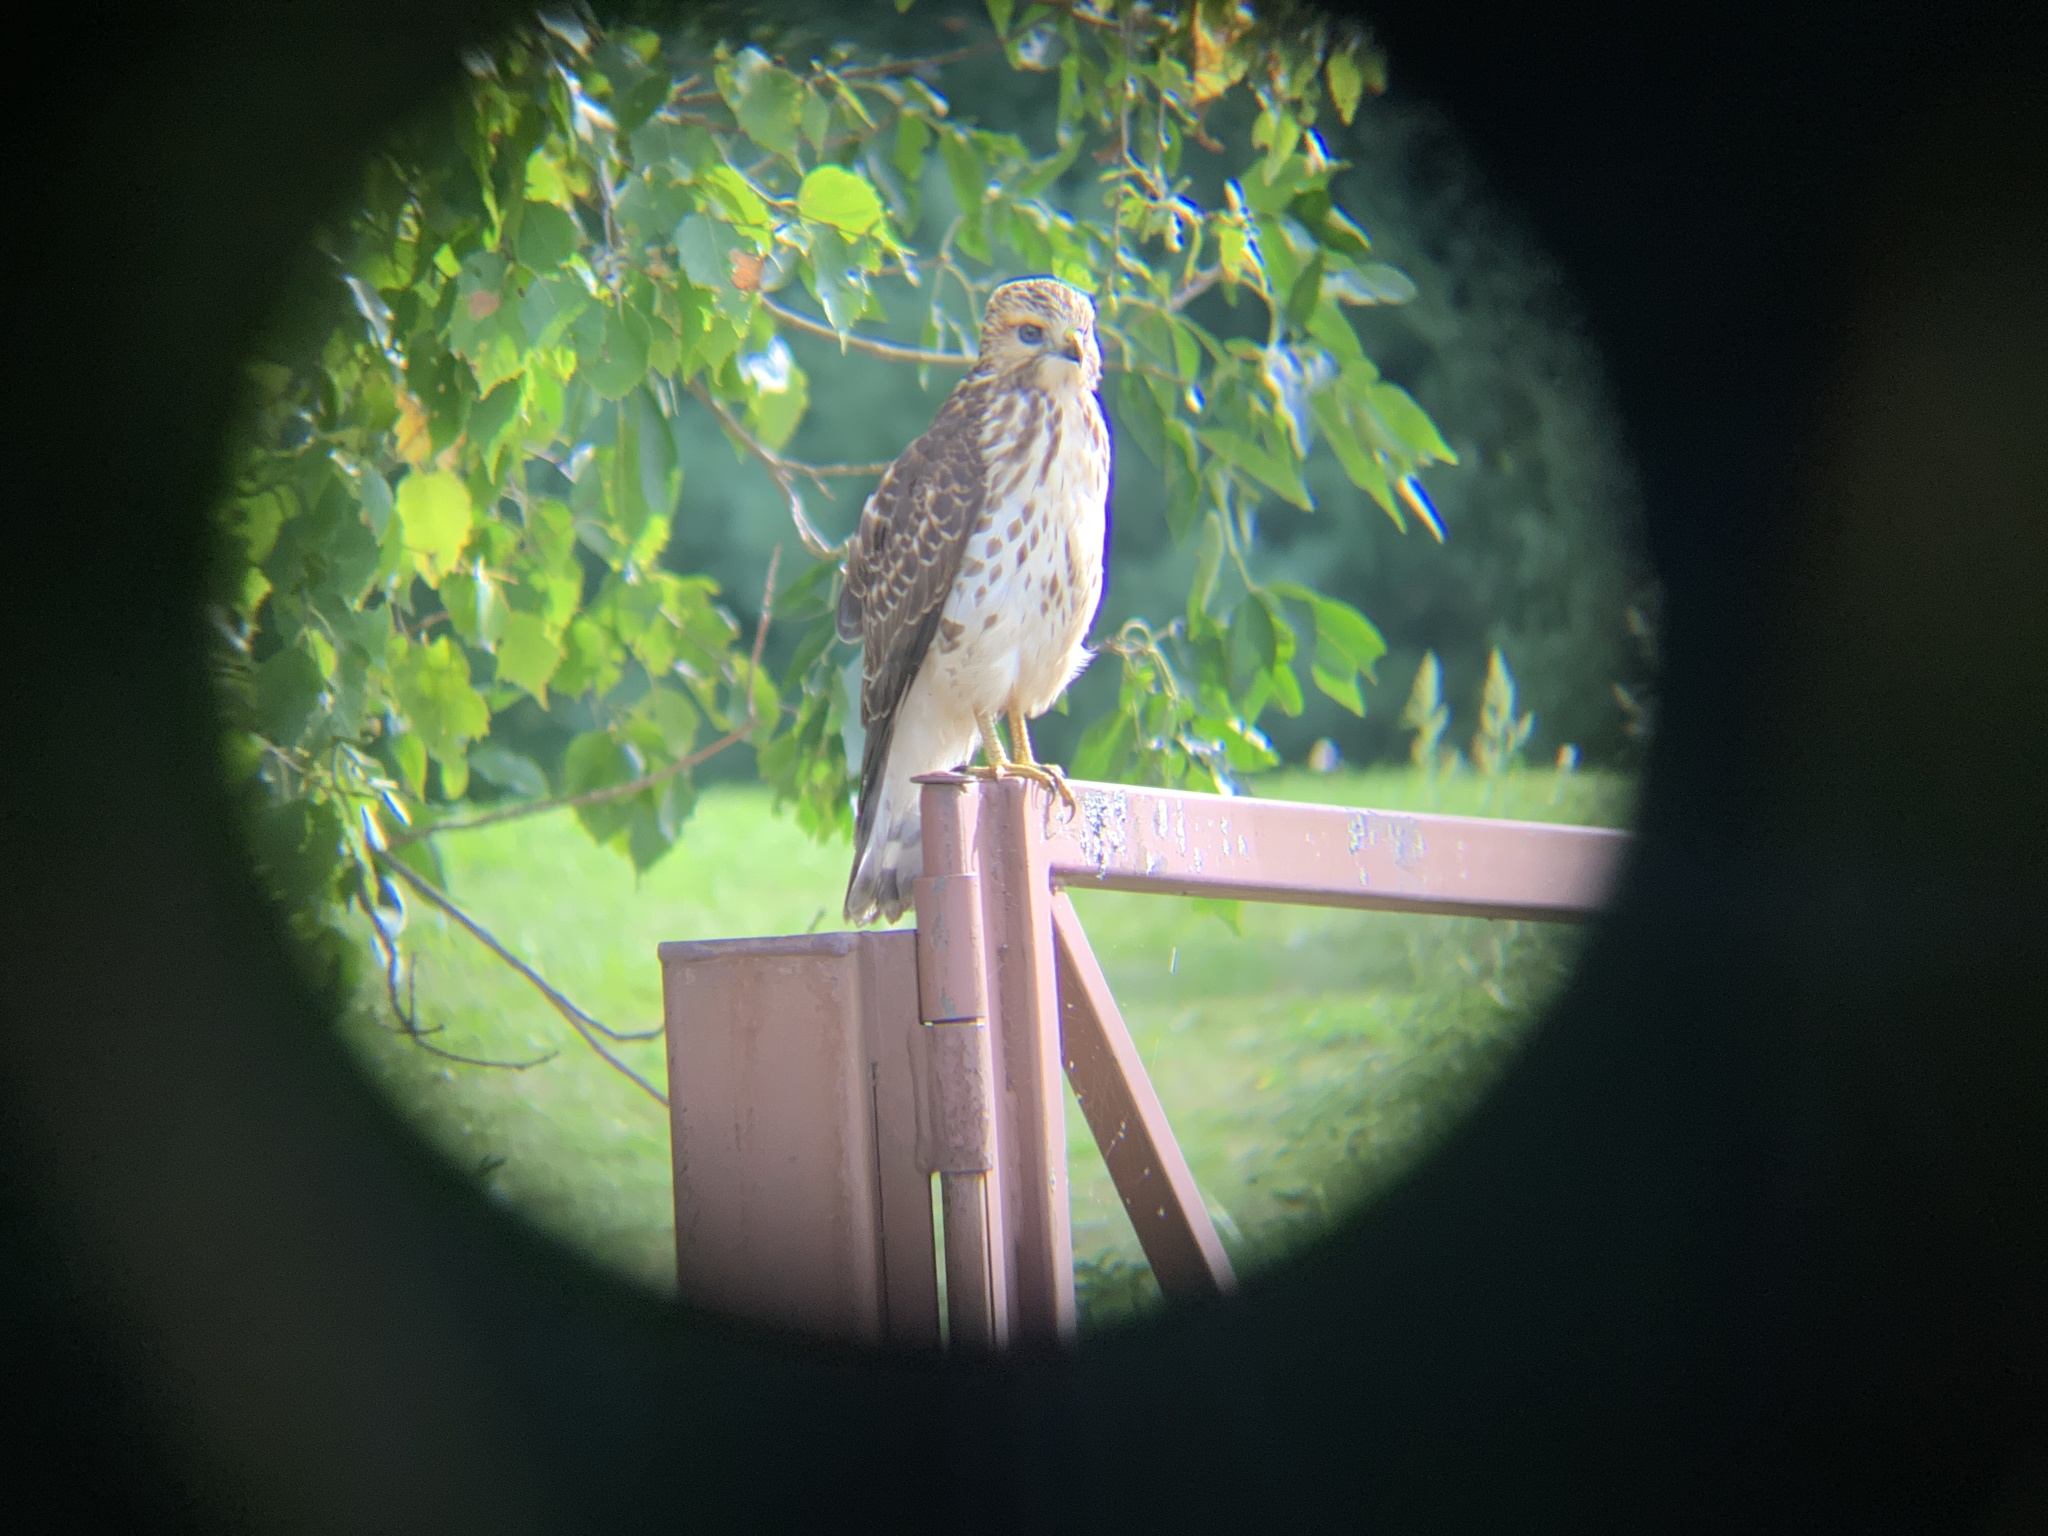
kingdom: Animalia
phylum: Chordata
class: Aves
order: Accipitriformes
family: Accipitridae
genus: Buteo
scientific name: Buteo platypterus
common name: Broad-winged hawk
